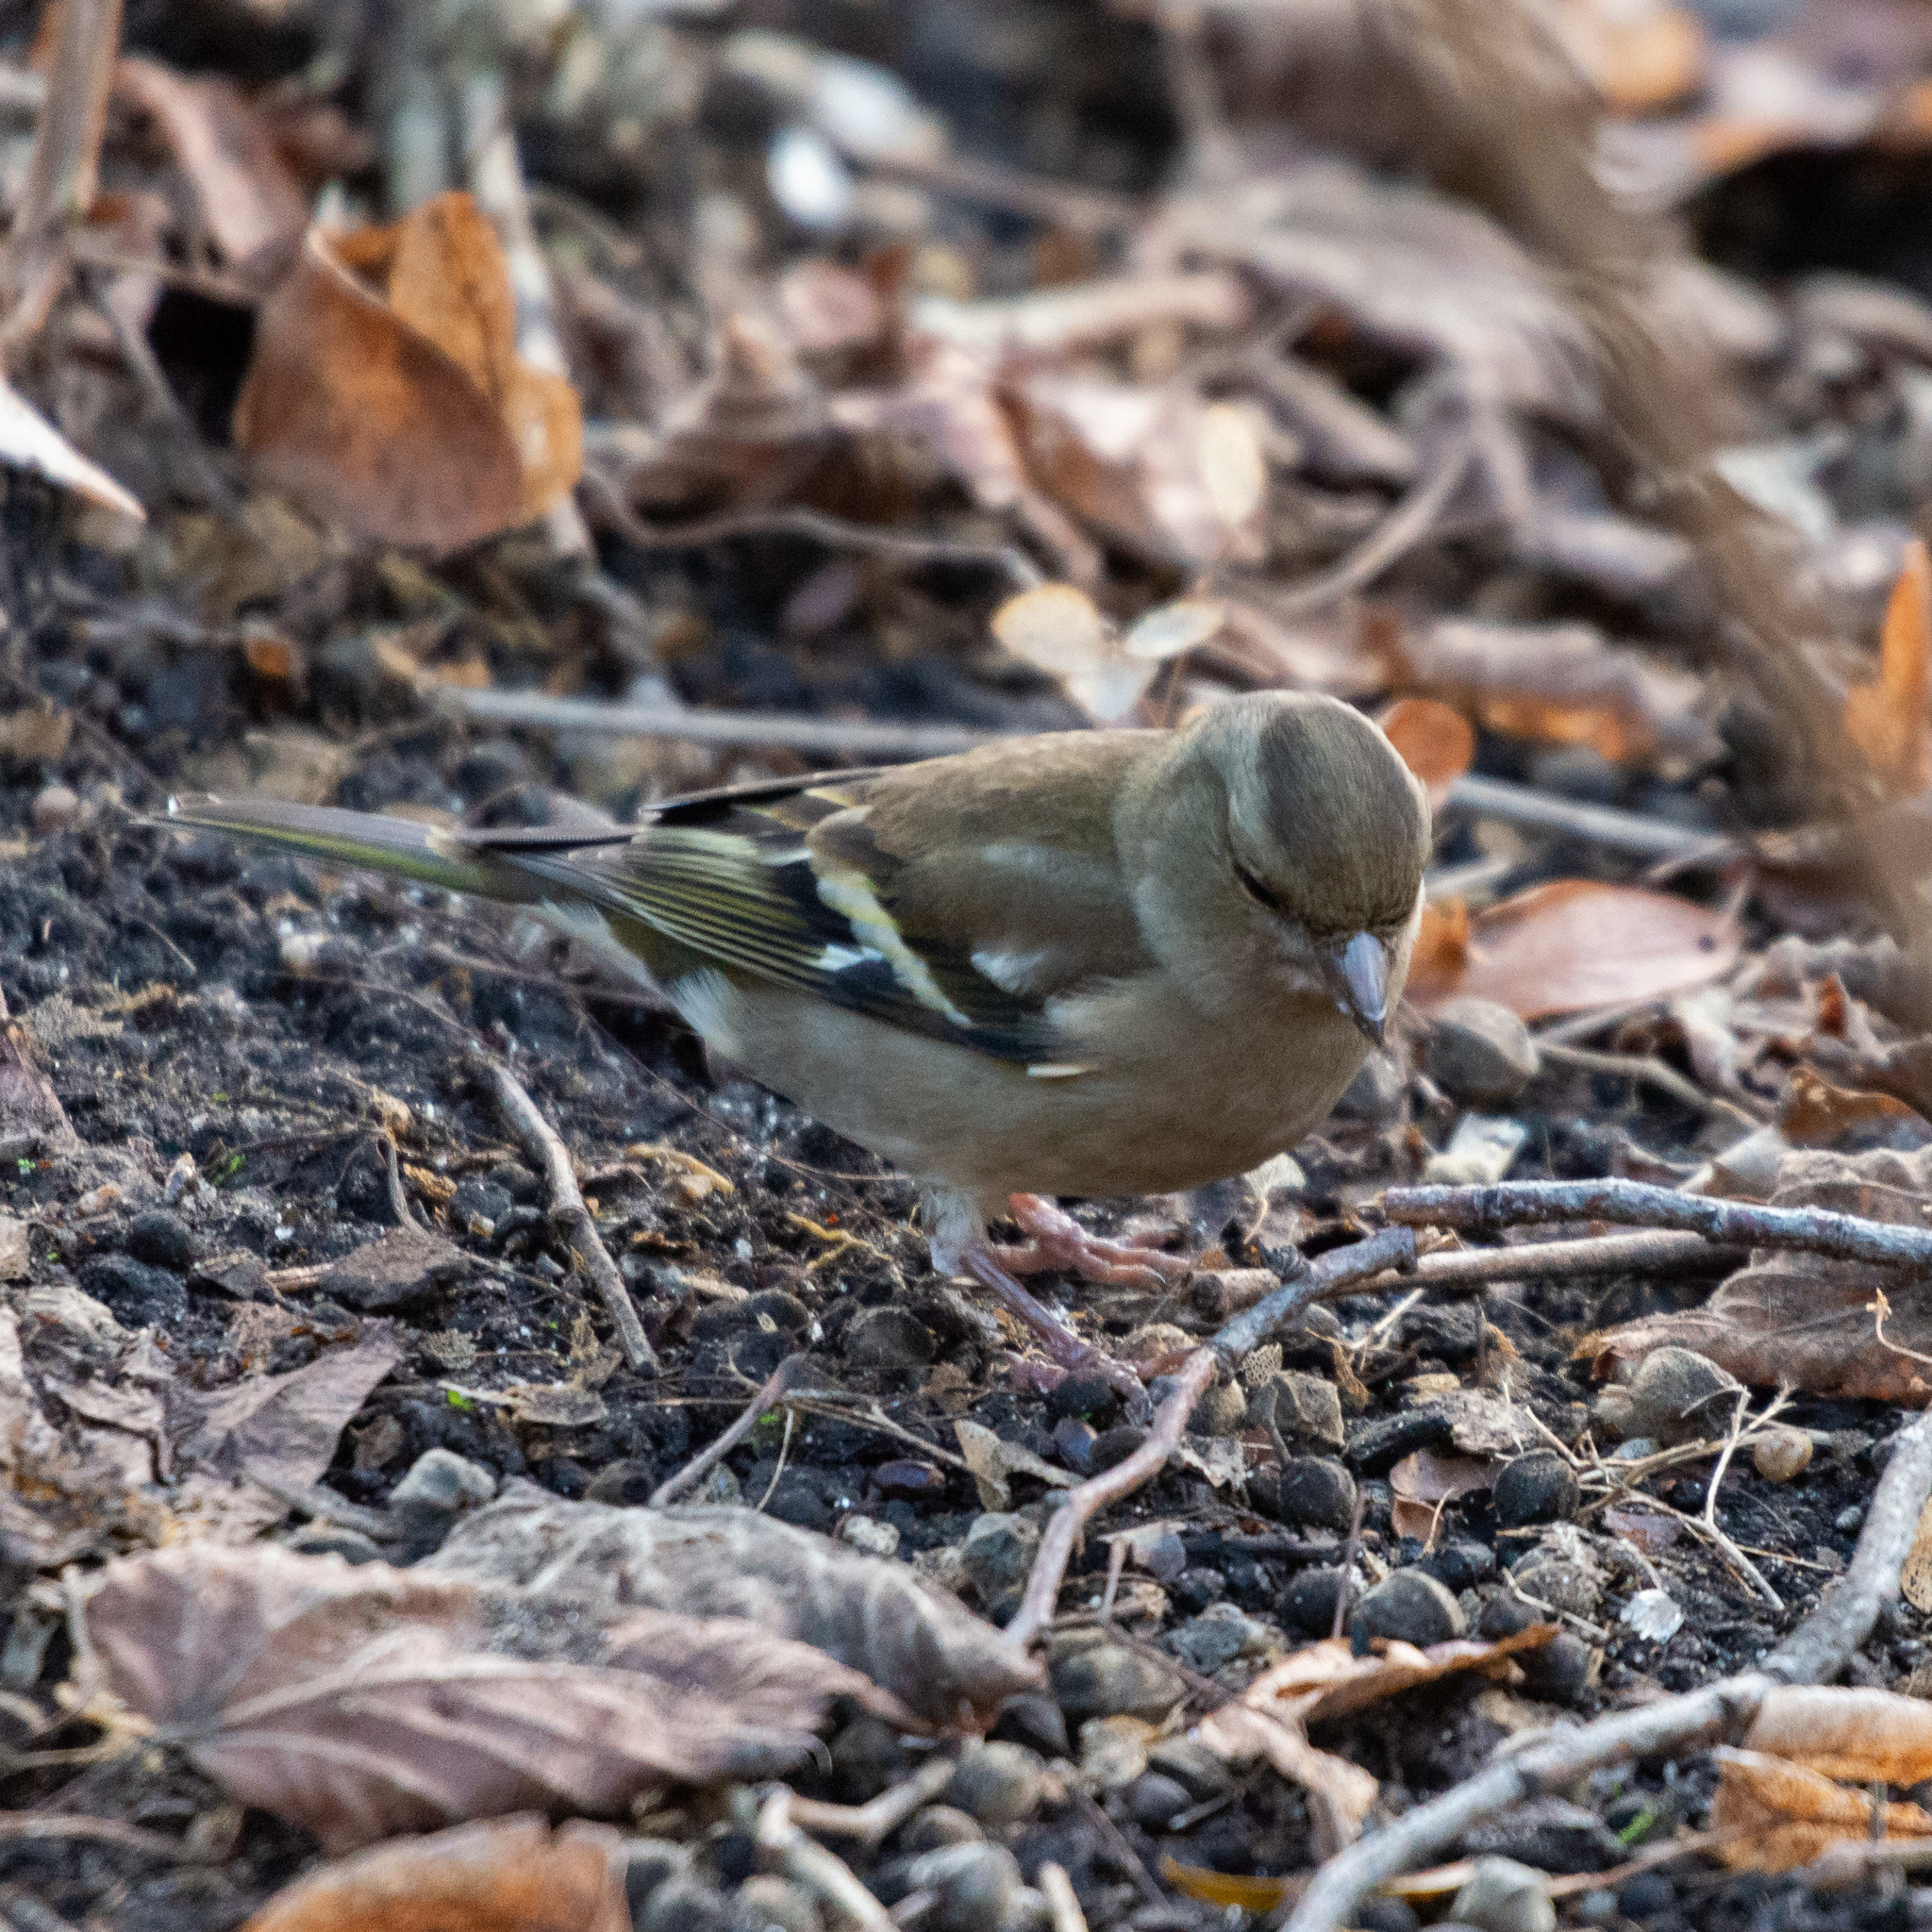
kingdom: Animalia
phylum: Chordata
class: Aves
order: Passeriformes
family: Fringillidae
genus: Fringilla
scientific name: Fringilla coelebs
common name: Common chaffinch
